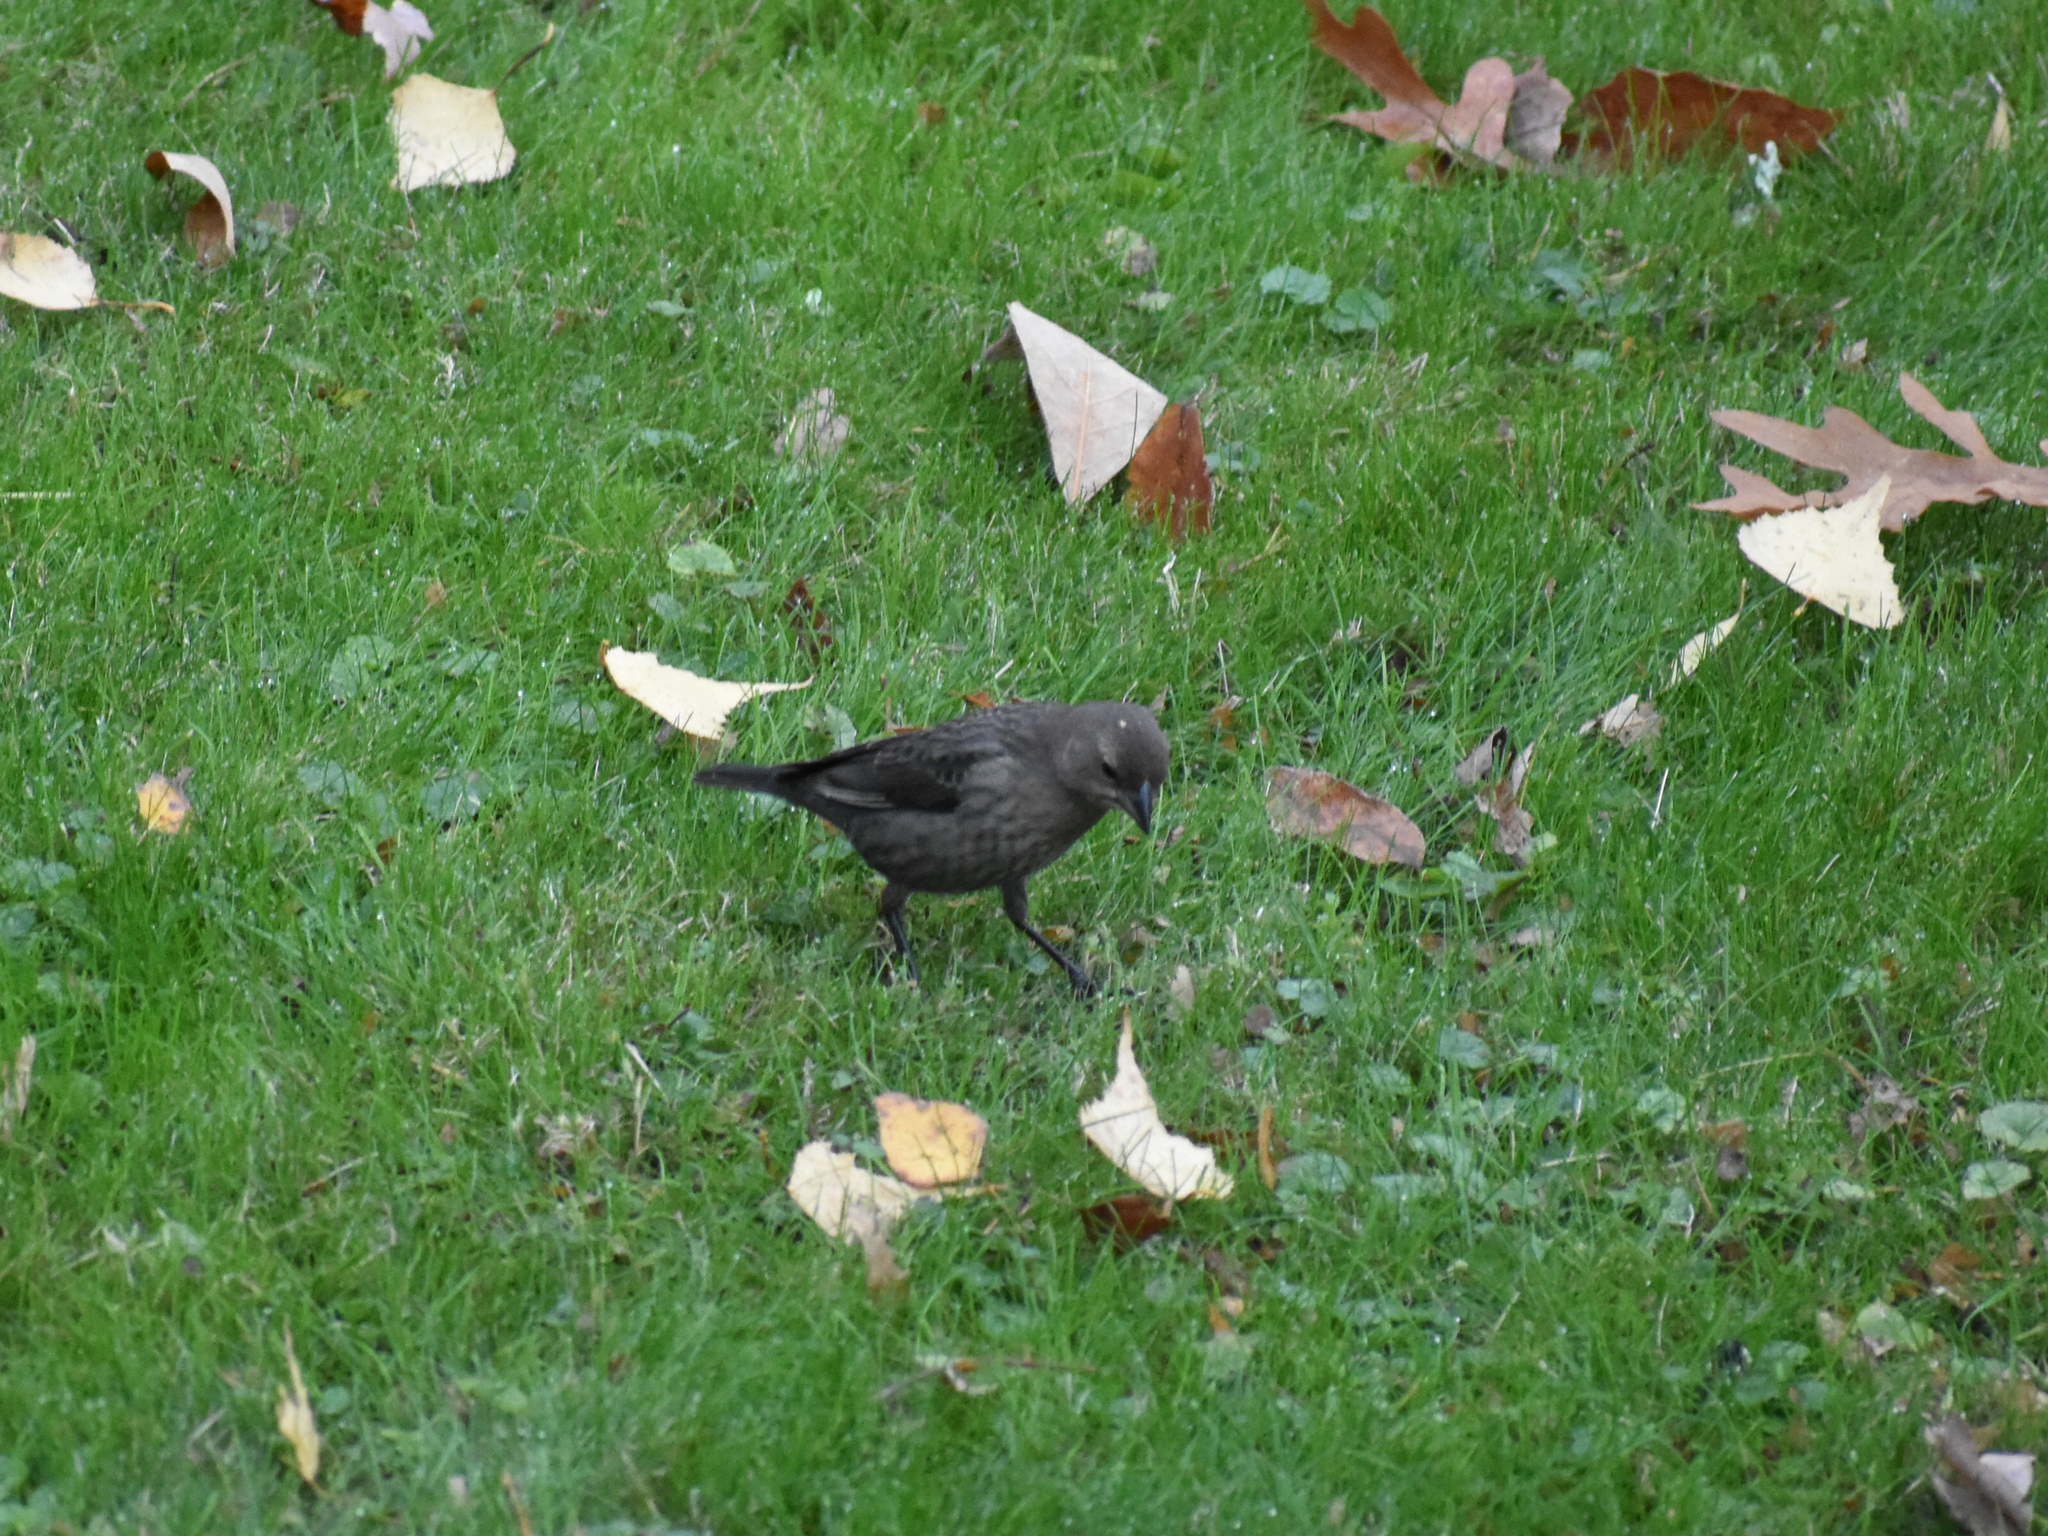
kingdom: Animalia
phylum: Chordata
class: Aves
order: Passeriformes
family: Icteridae
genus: Molothrus
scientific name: Molothrus ater
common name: Brown-headed cowbird
